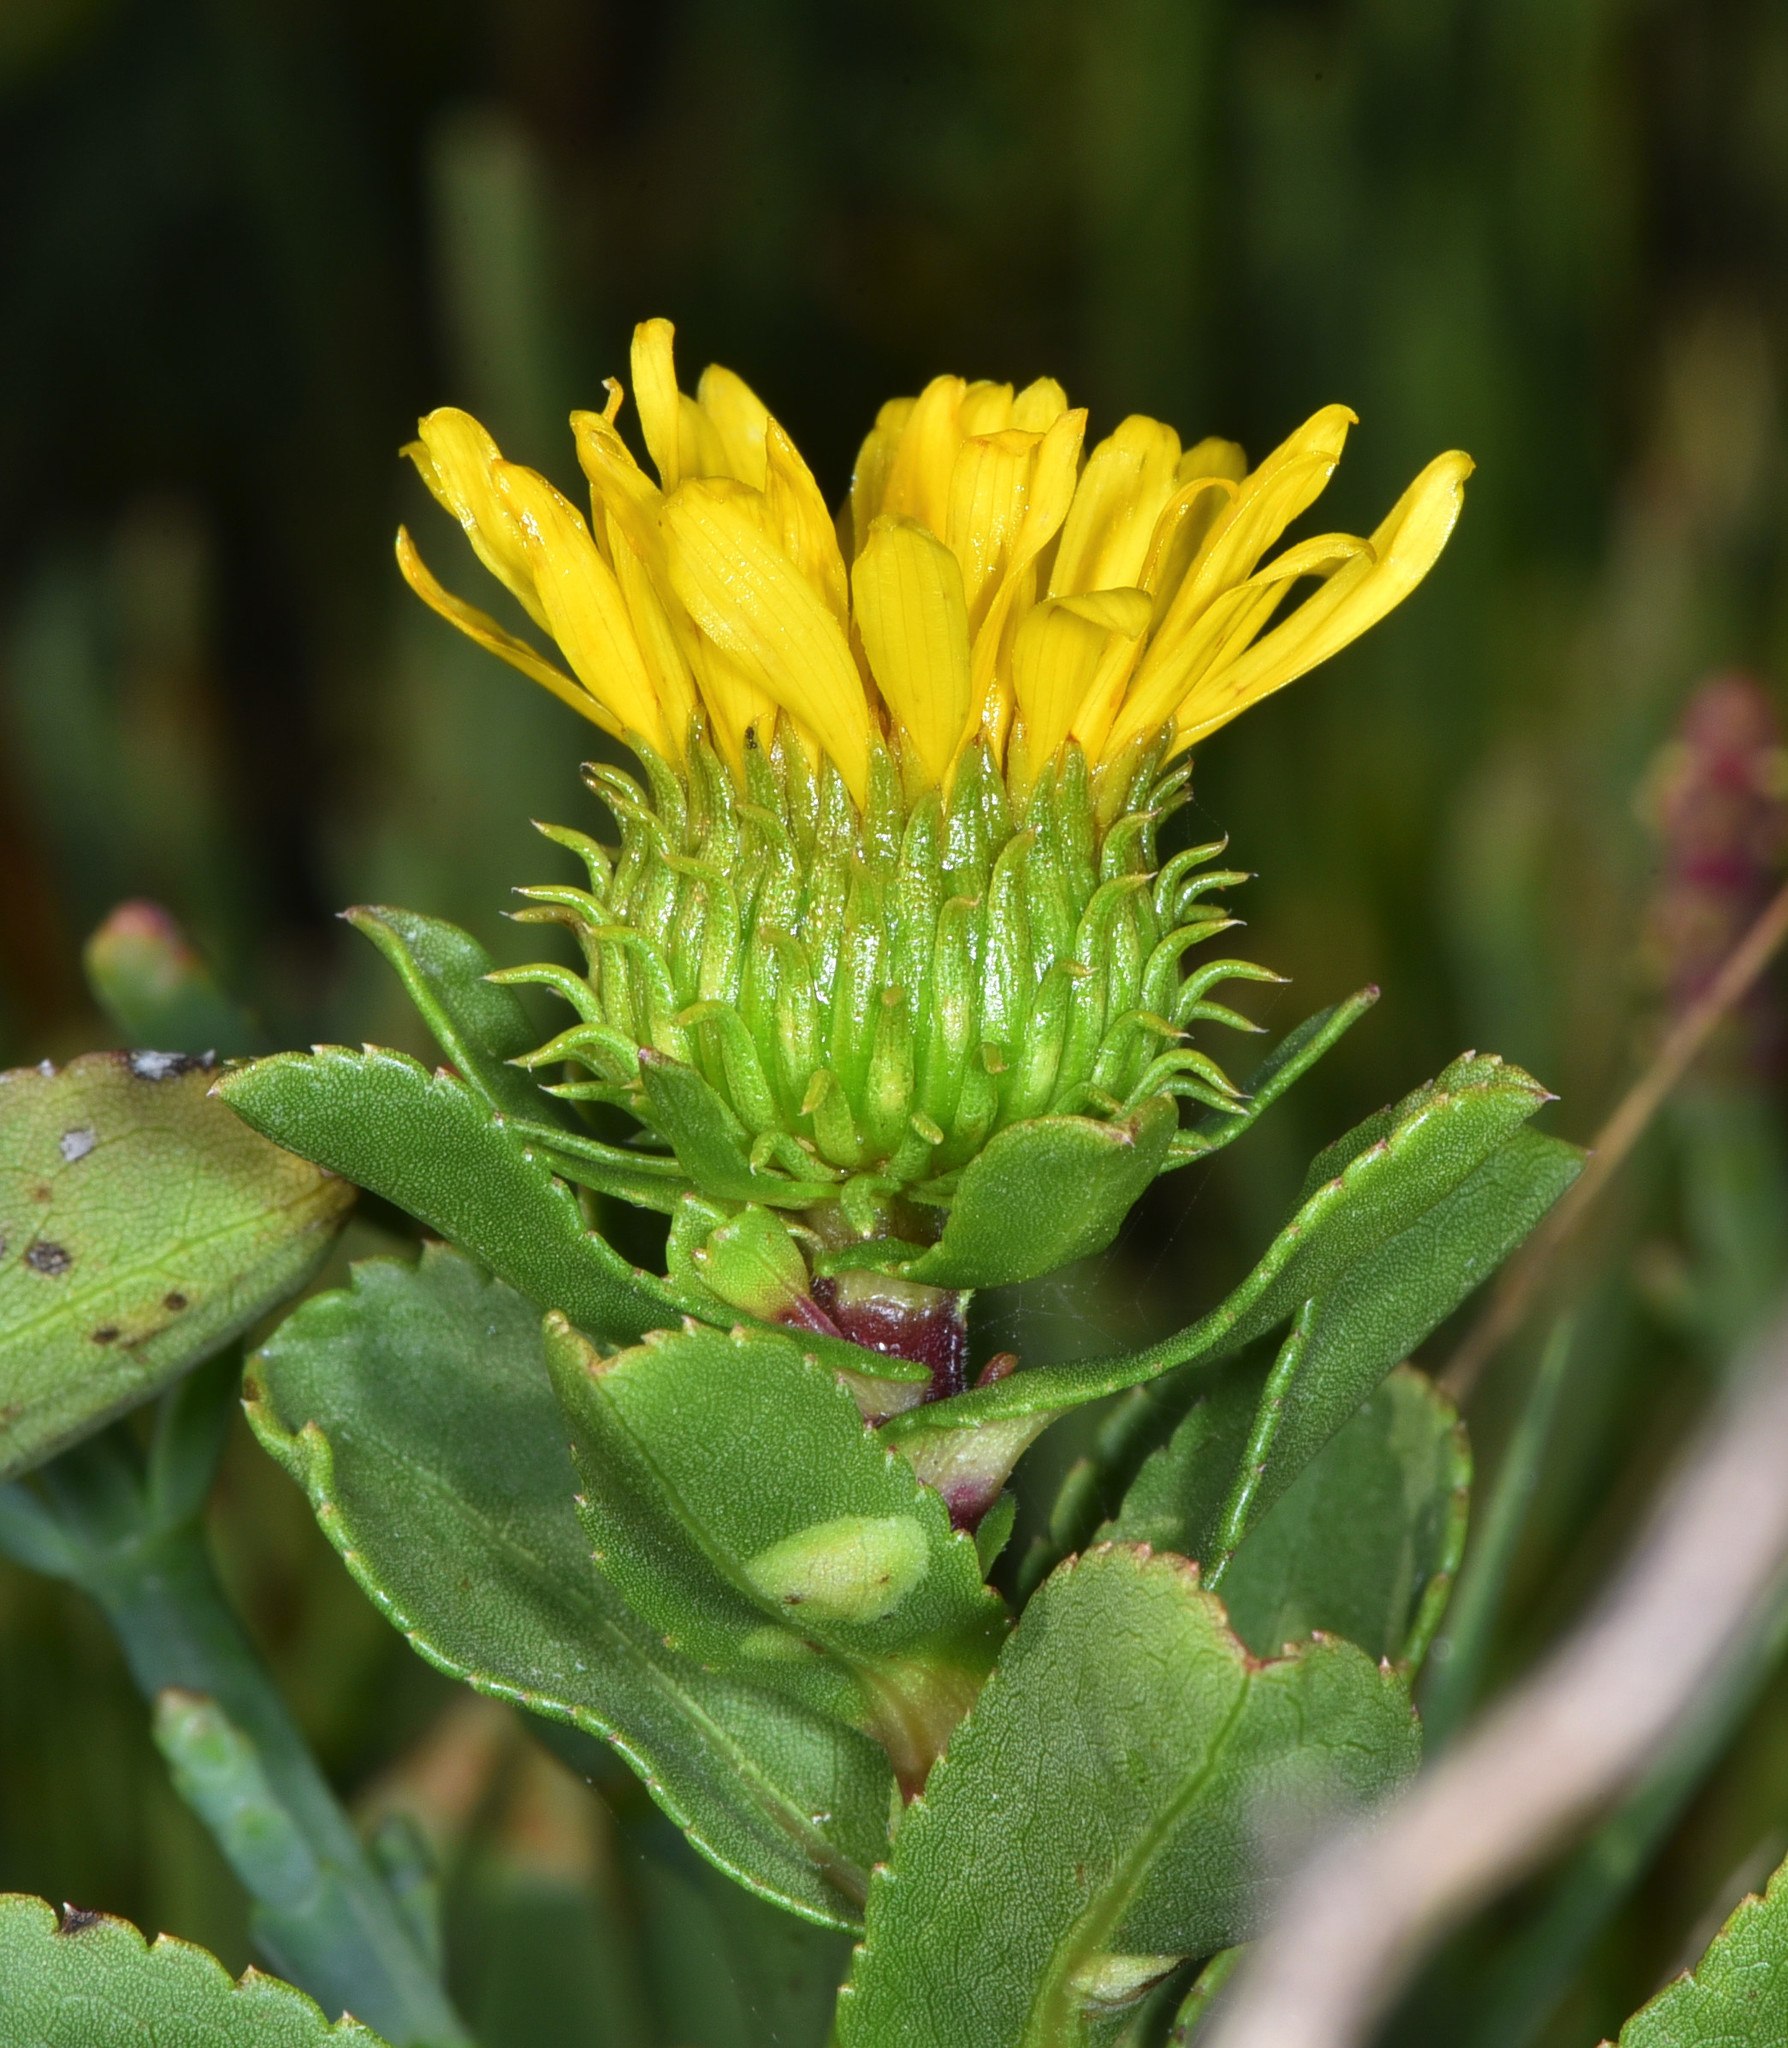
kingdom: Plantae
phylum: Tracheophyta
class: Magnoliopsida
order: Asterales
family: Asteraceae
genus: Grindelia
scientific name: Grindelia hirsutula
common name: Hairy gumweed
